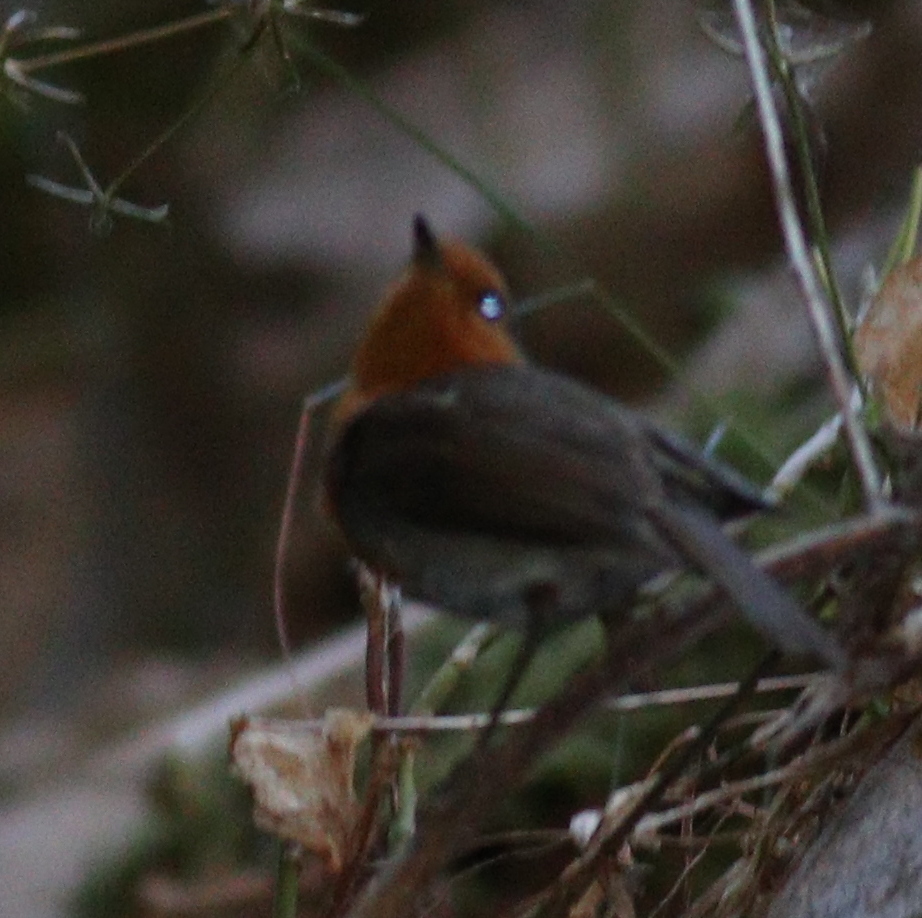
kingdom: Animalia
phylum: Chordata
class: Aves
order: Passeriformes
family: Muscicapidae
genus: Erithacus
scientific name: Erithacus rubecula
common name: European robin
